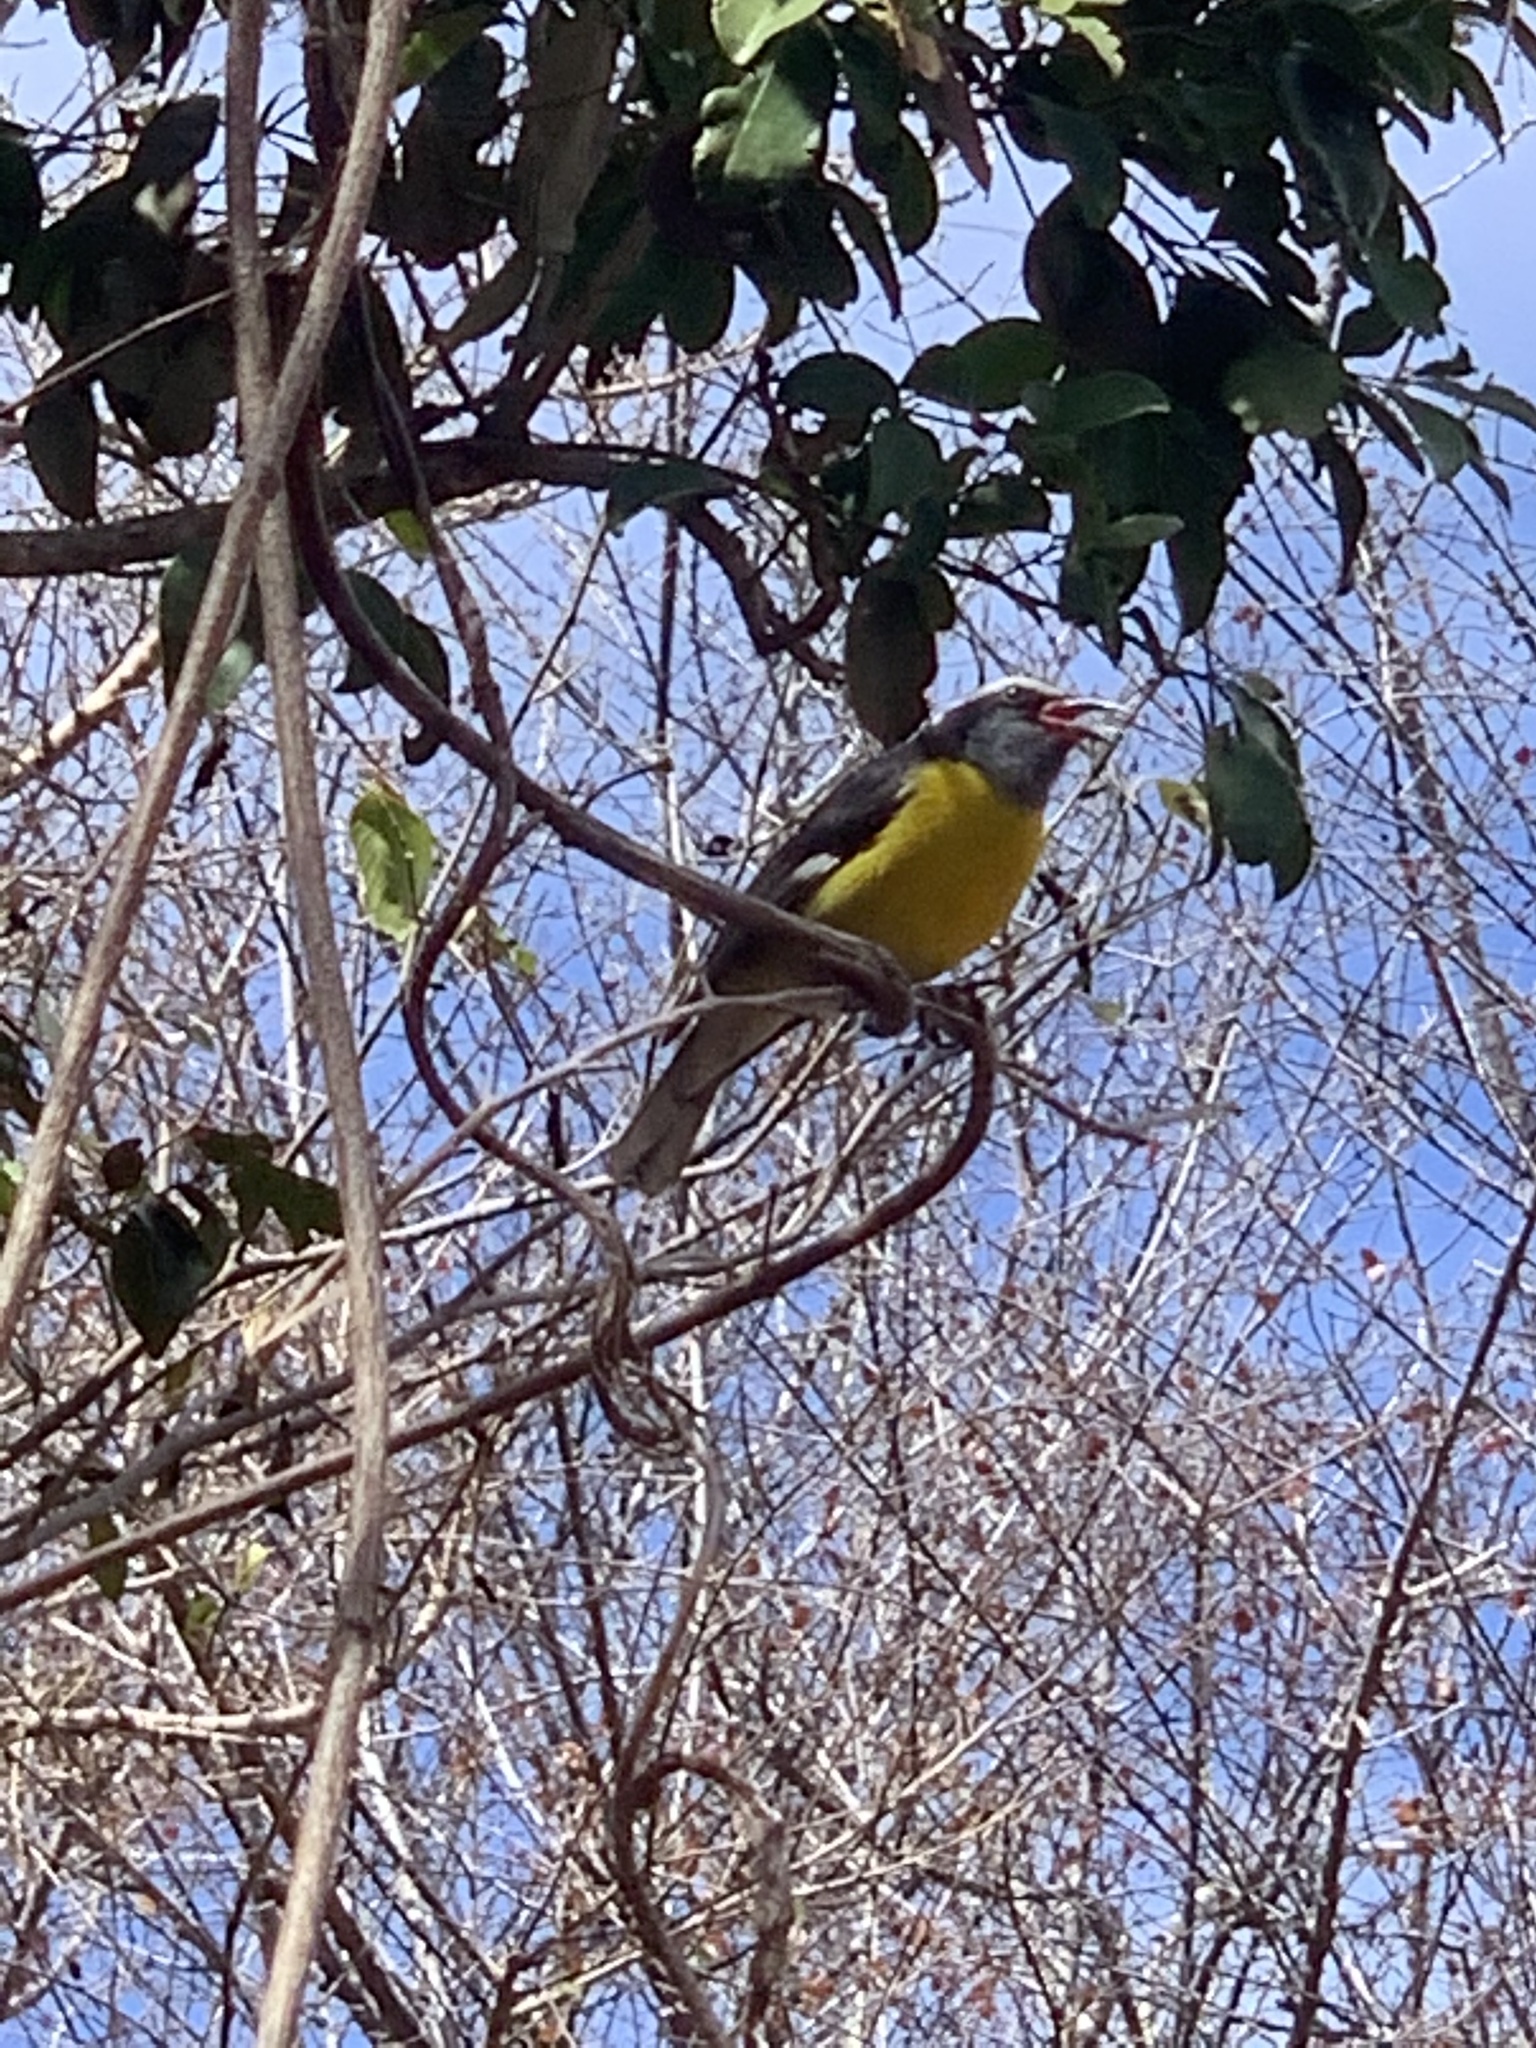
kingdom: Animalia
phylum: Chordata
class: Aves
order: Passeriformes
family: Thraupidae
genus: Coereba
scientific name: Coereba flaveola
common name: Bananaquit
